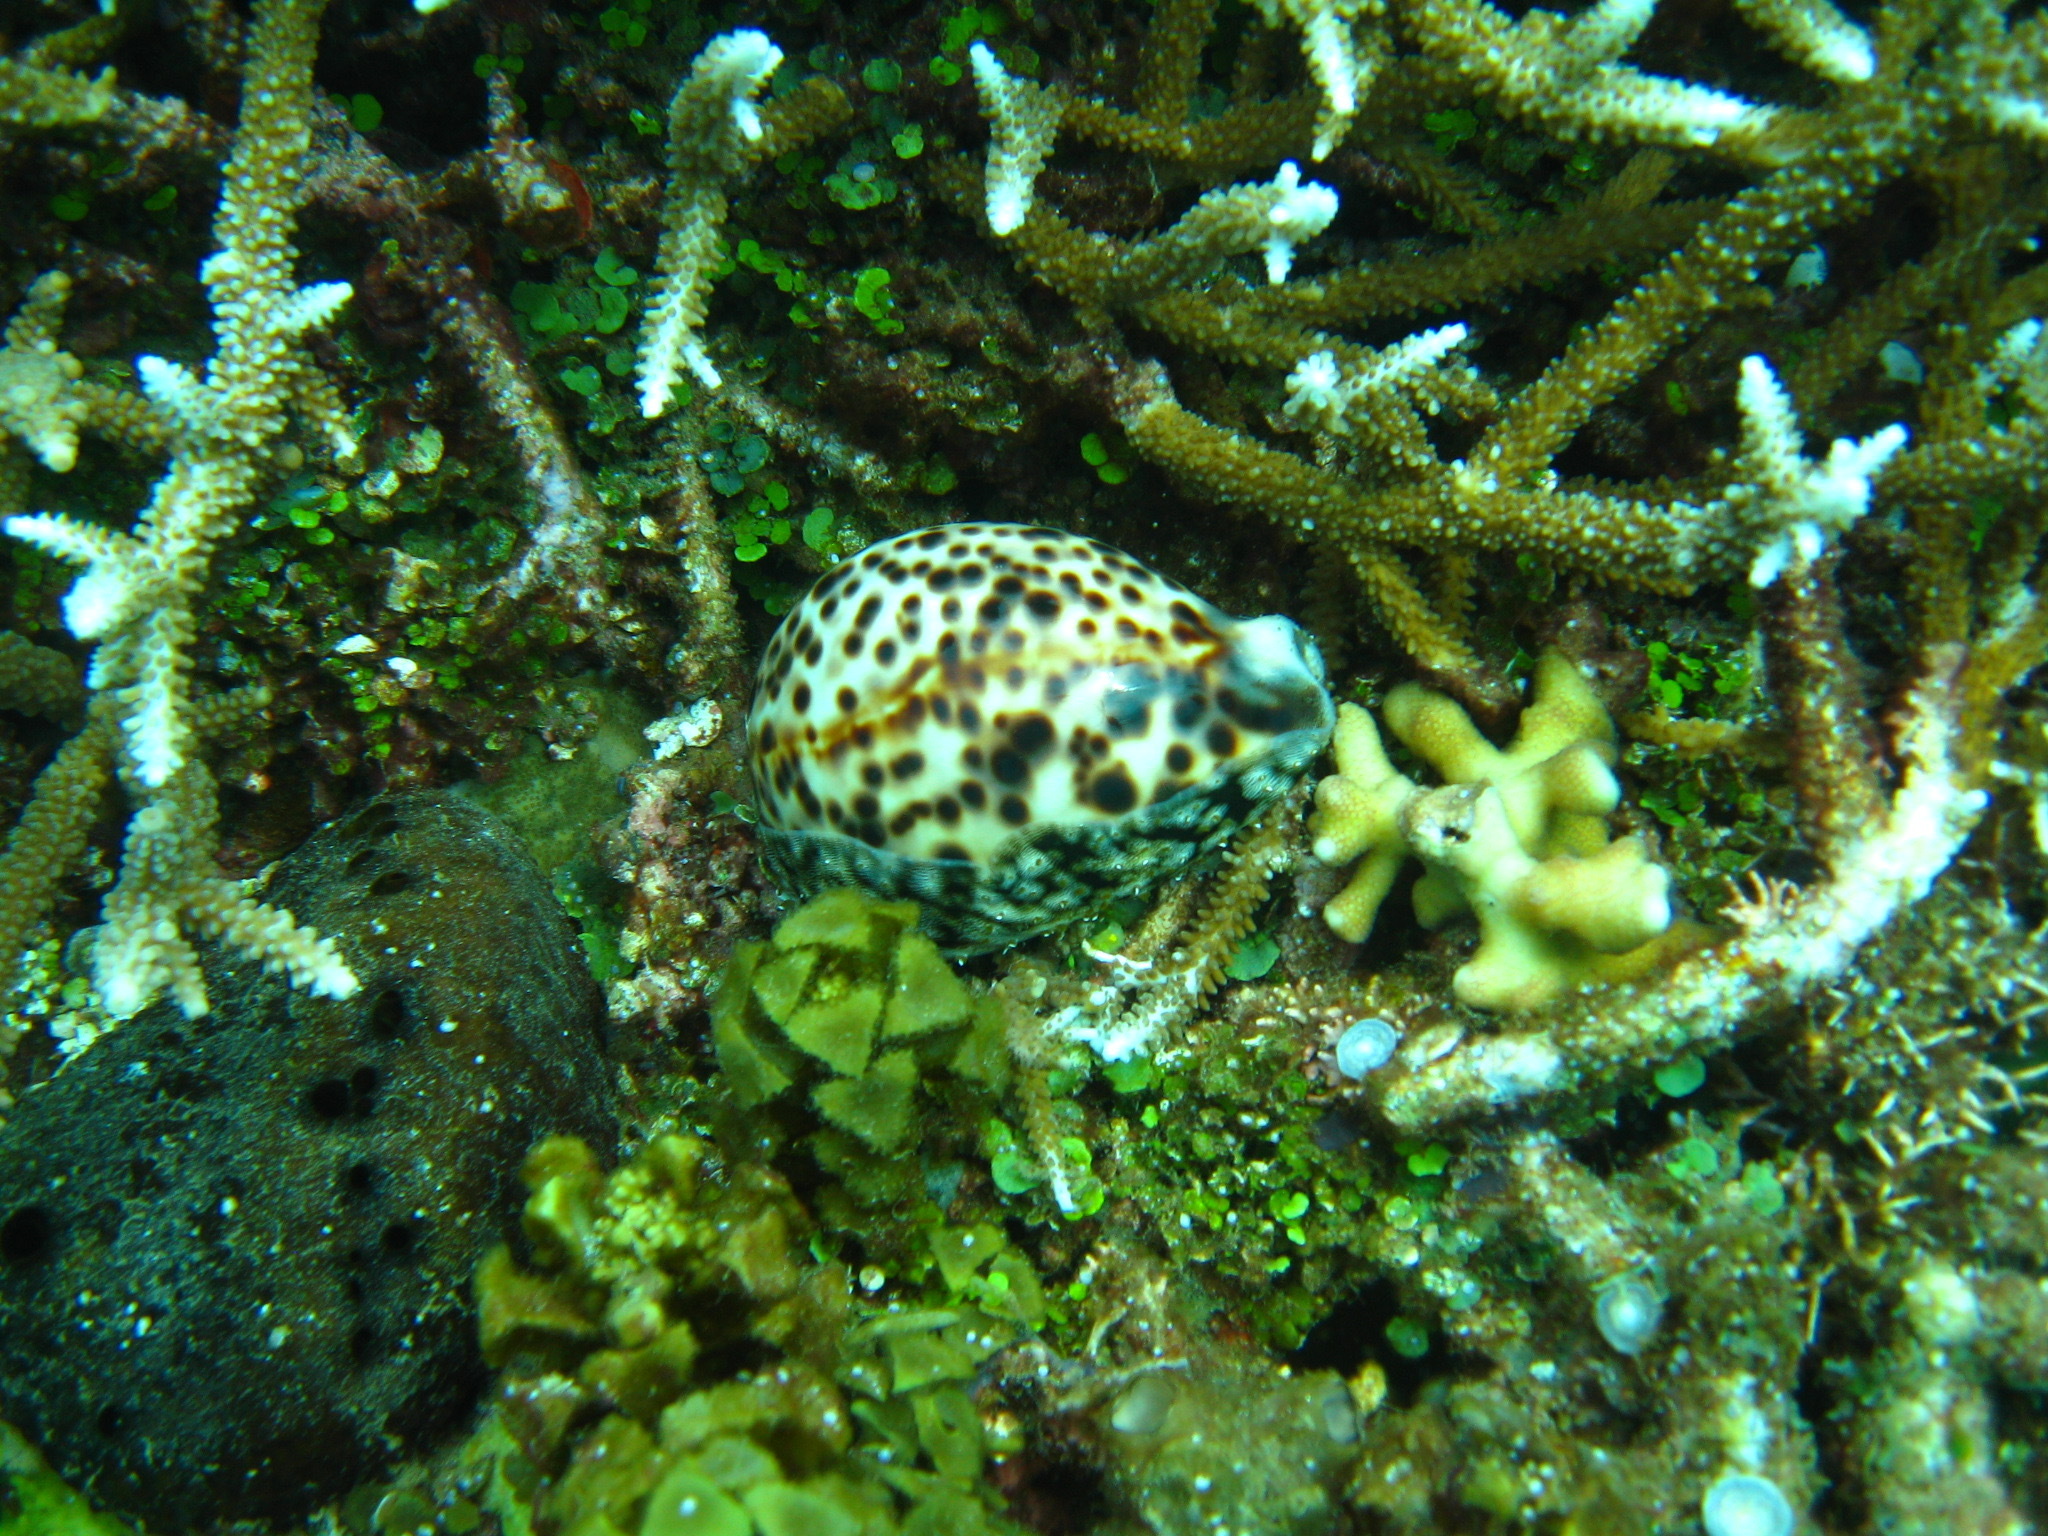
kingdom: Animalia
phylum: Mollusca
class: Gastropoda
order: Littorinimorpha
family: Cypraeidae
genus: Cypraea
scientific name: Cypraea tigris
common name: Tiger cowrie
